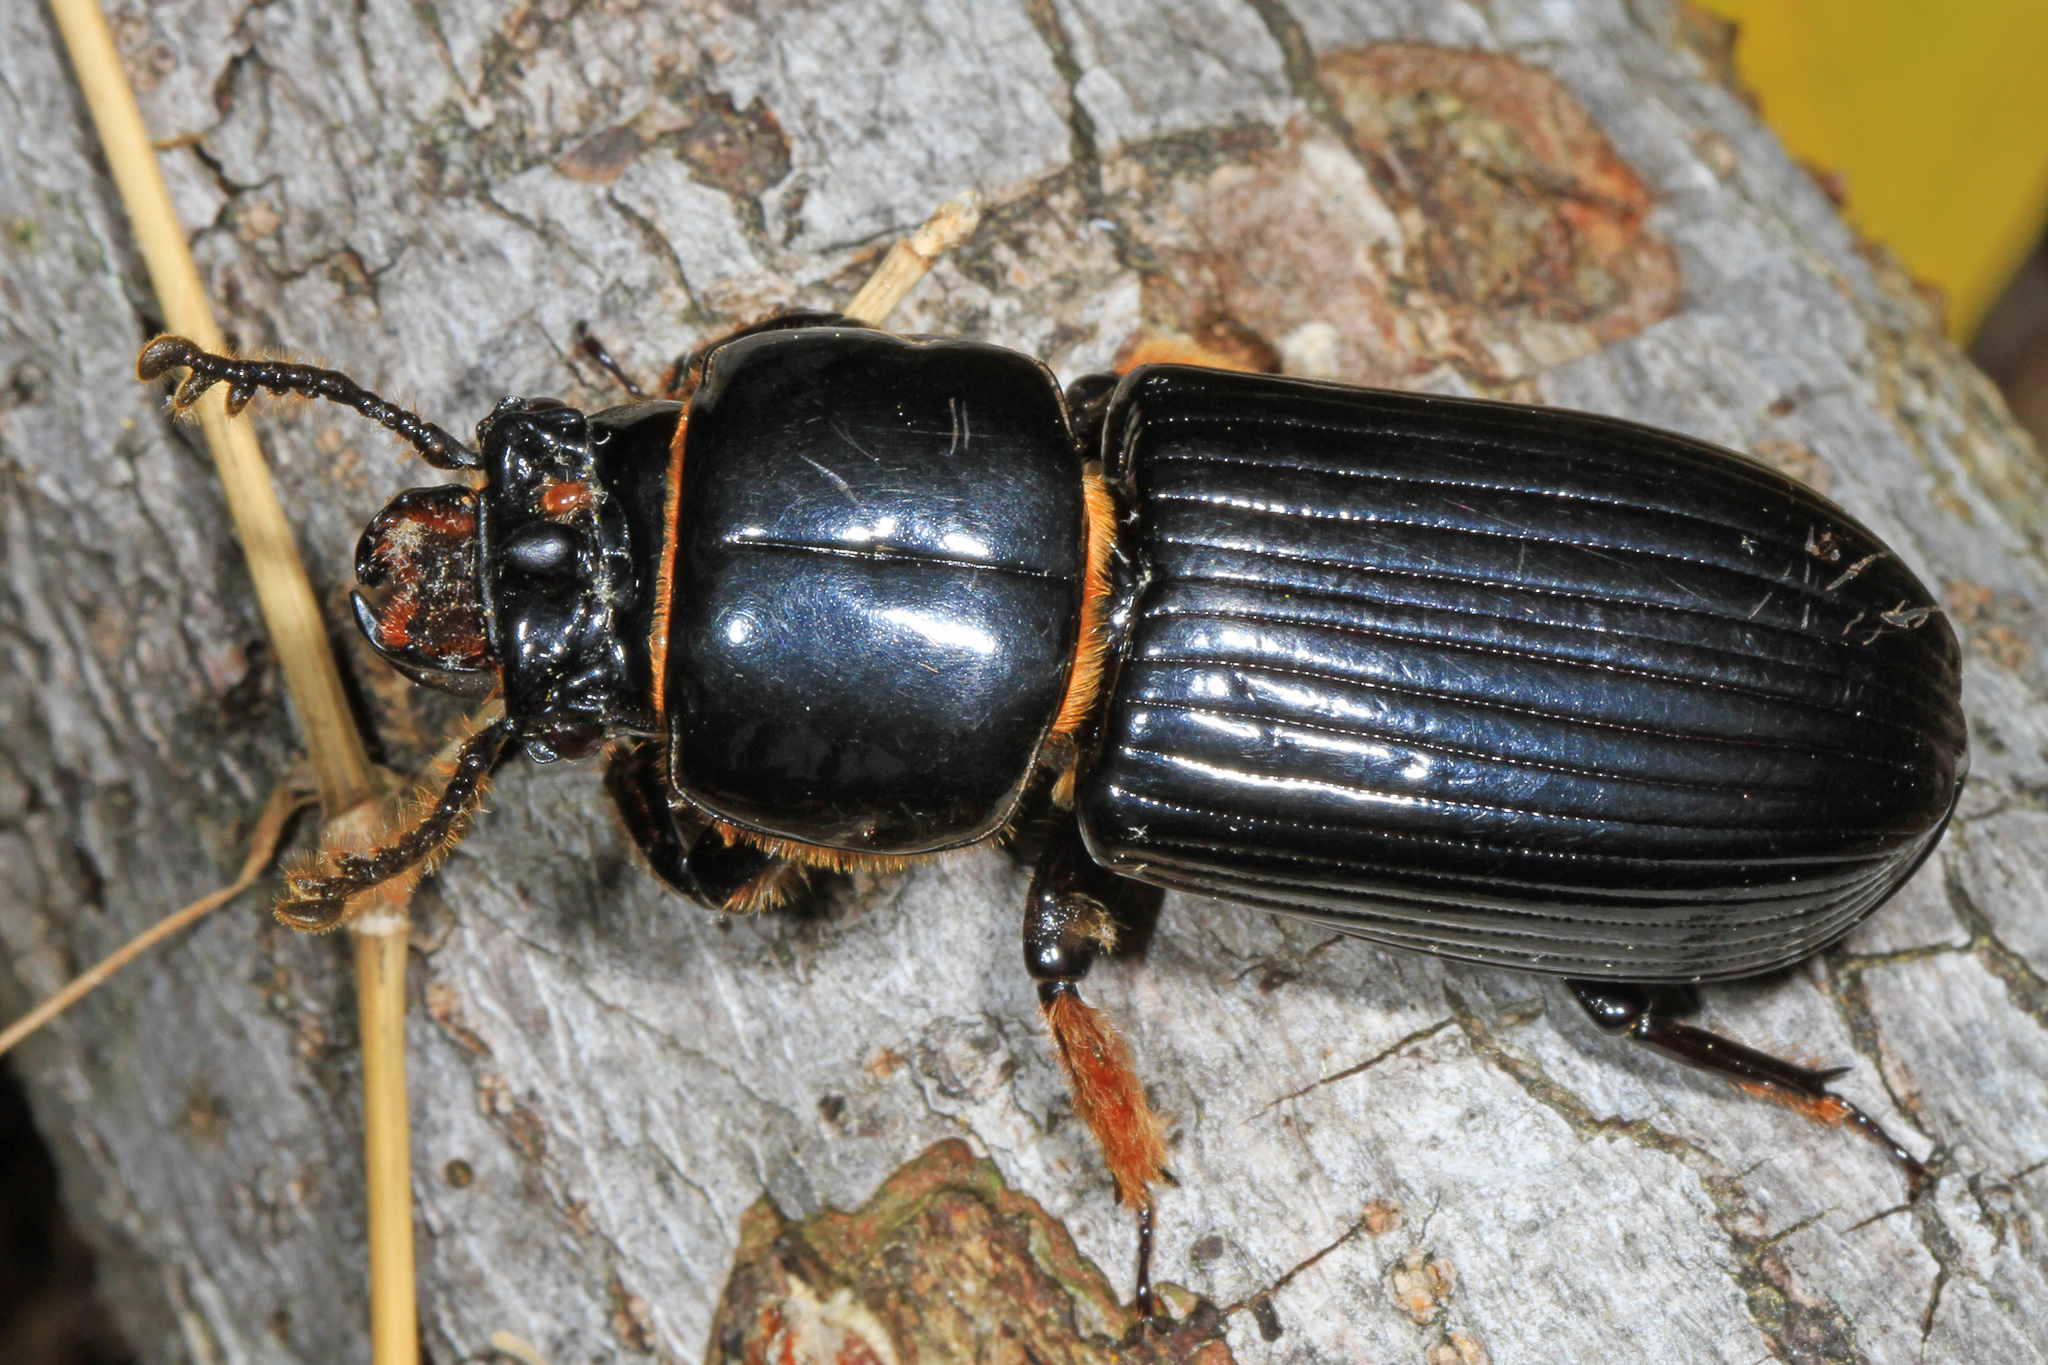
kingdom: Animalia
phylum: Arthropoda
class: Insecta
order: Coleoptera
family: Passalidae
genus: Odontotaenius
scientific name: Odontotaenius disjunctus
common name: Patent leather beetle
